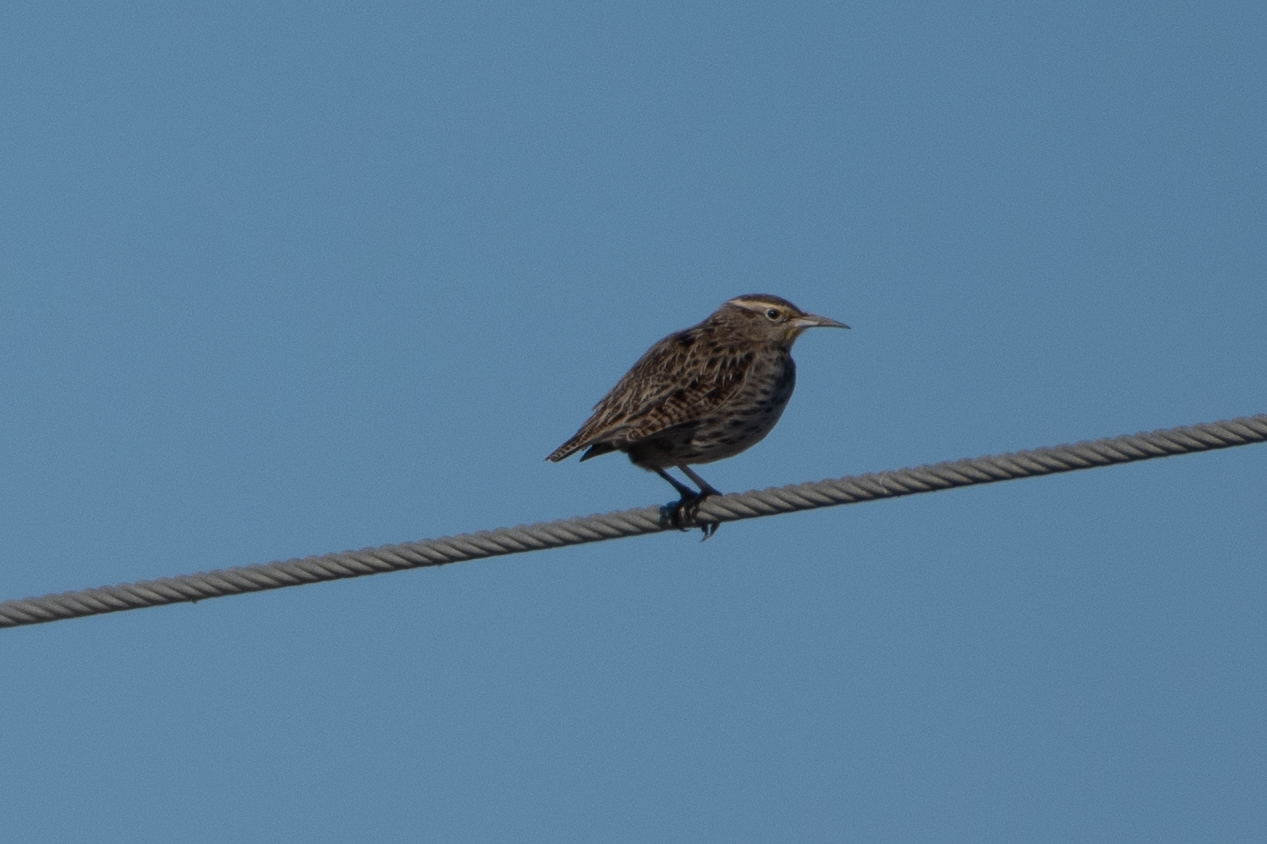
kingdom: Animalia
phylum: Chordata
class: Aves
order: Passeriformes
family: Icteridae
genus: Sturnella
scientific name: Sturnella neglecta
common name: Western meadowlark
